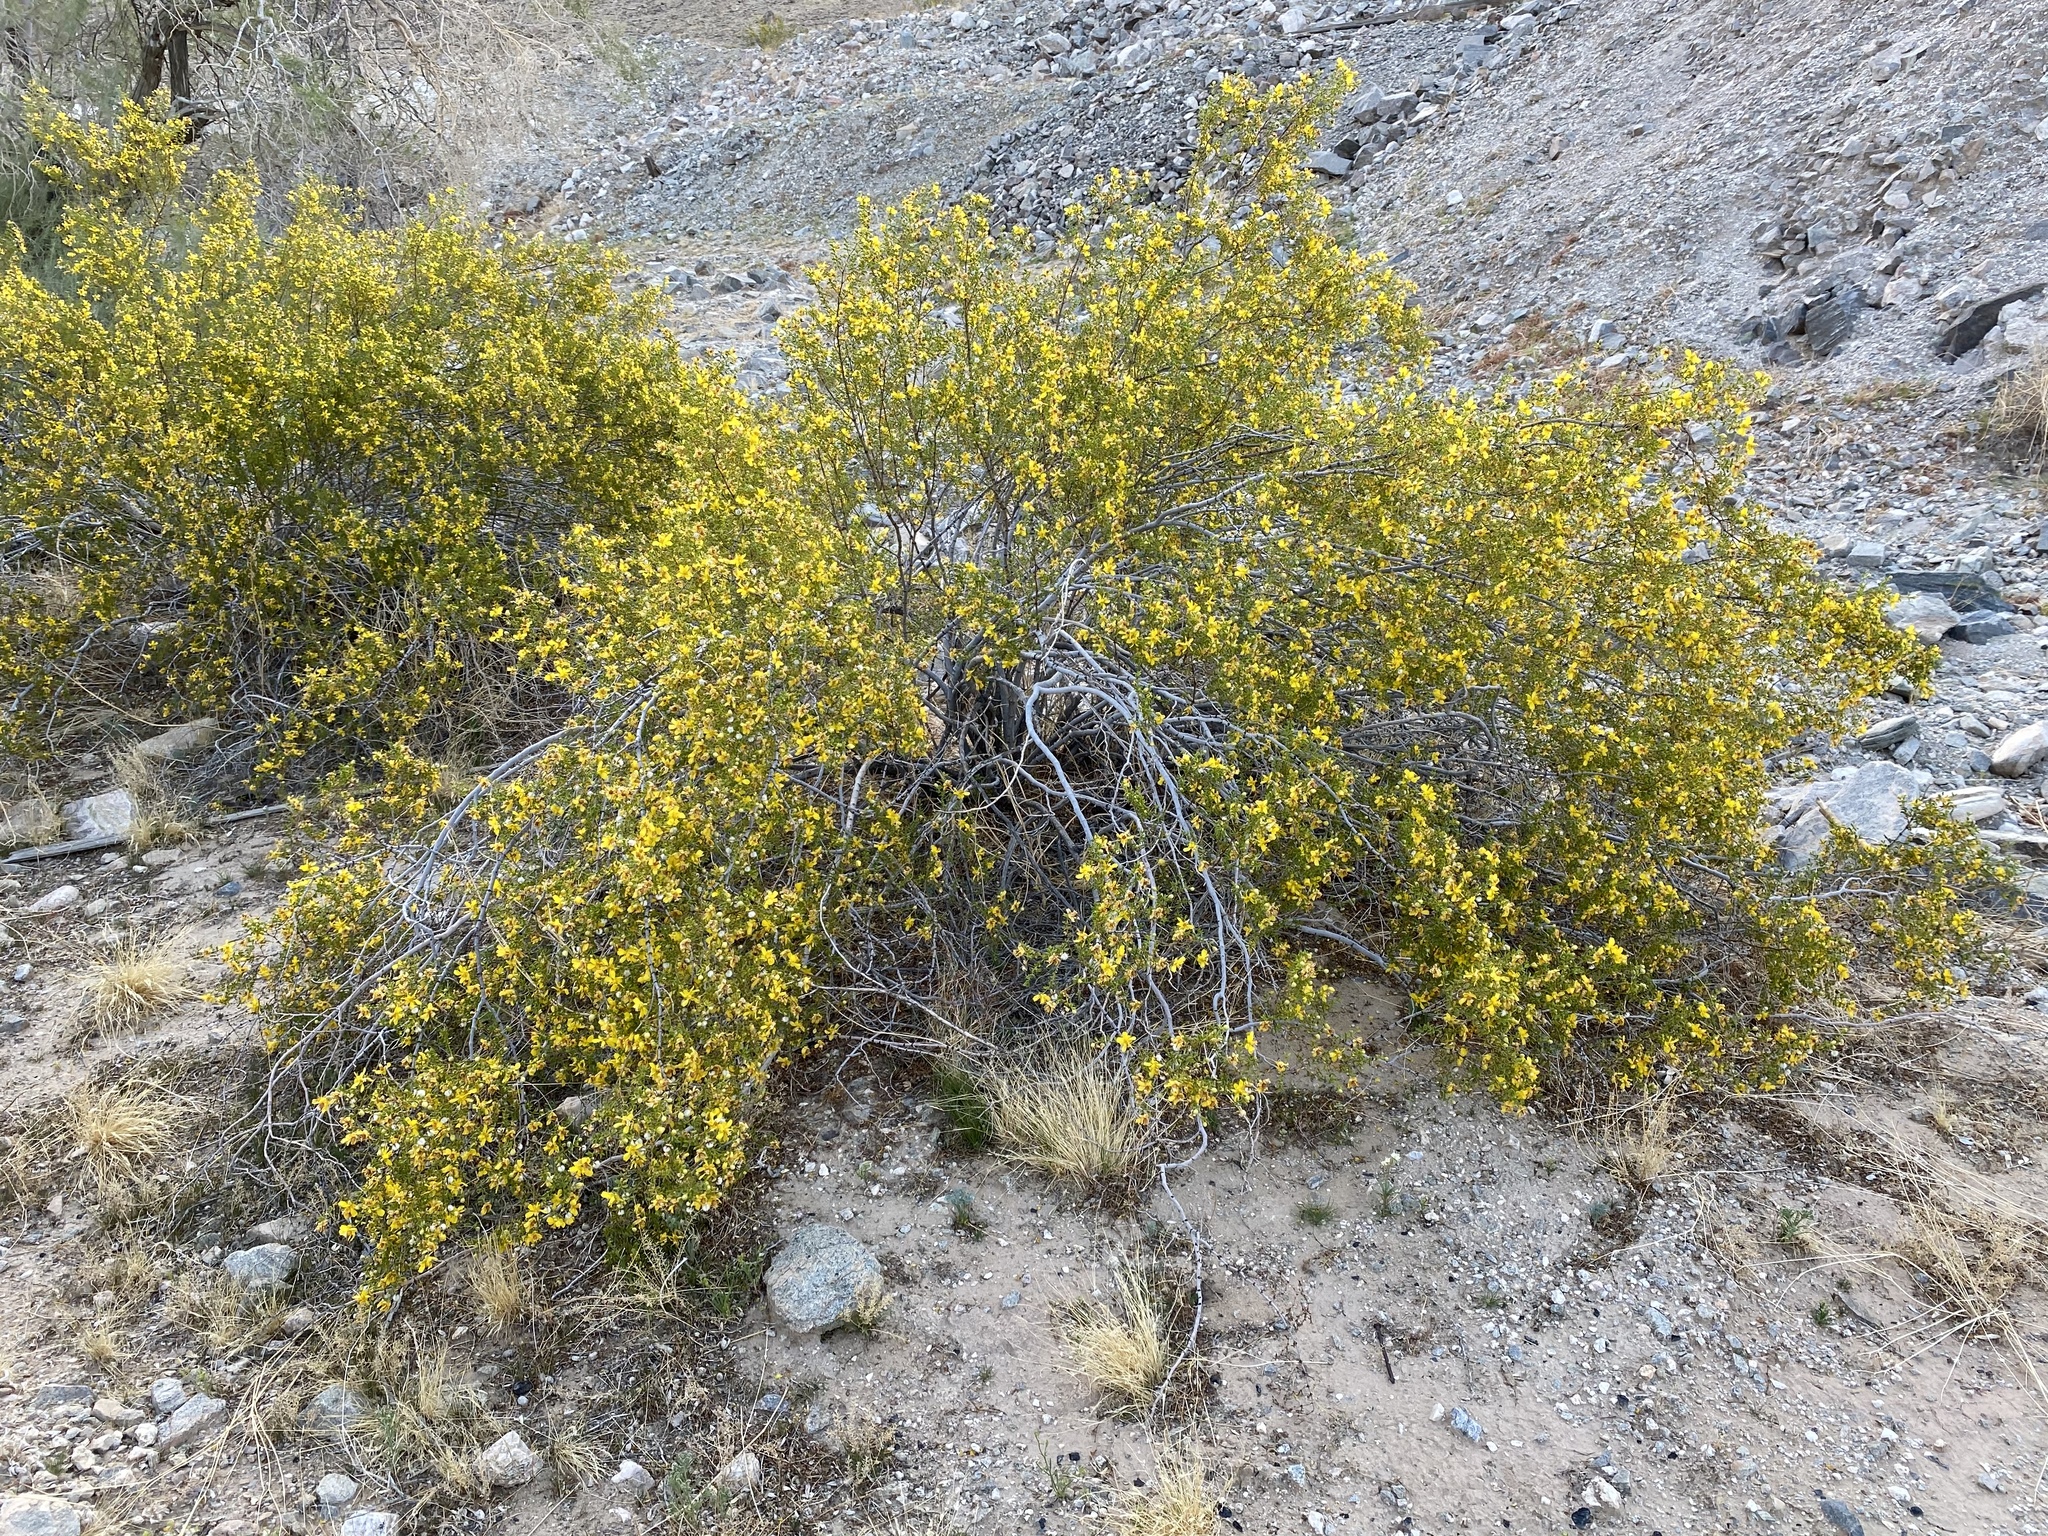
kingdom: Plantae
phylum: Tracheophyta
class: Magnoliopsida
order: Zygophyllales
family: Zygophyllaceae
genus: Larrea
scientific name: Larrea tridentata
